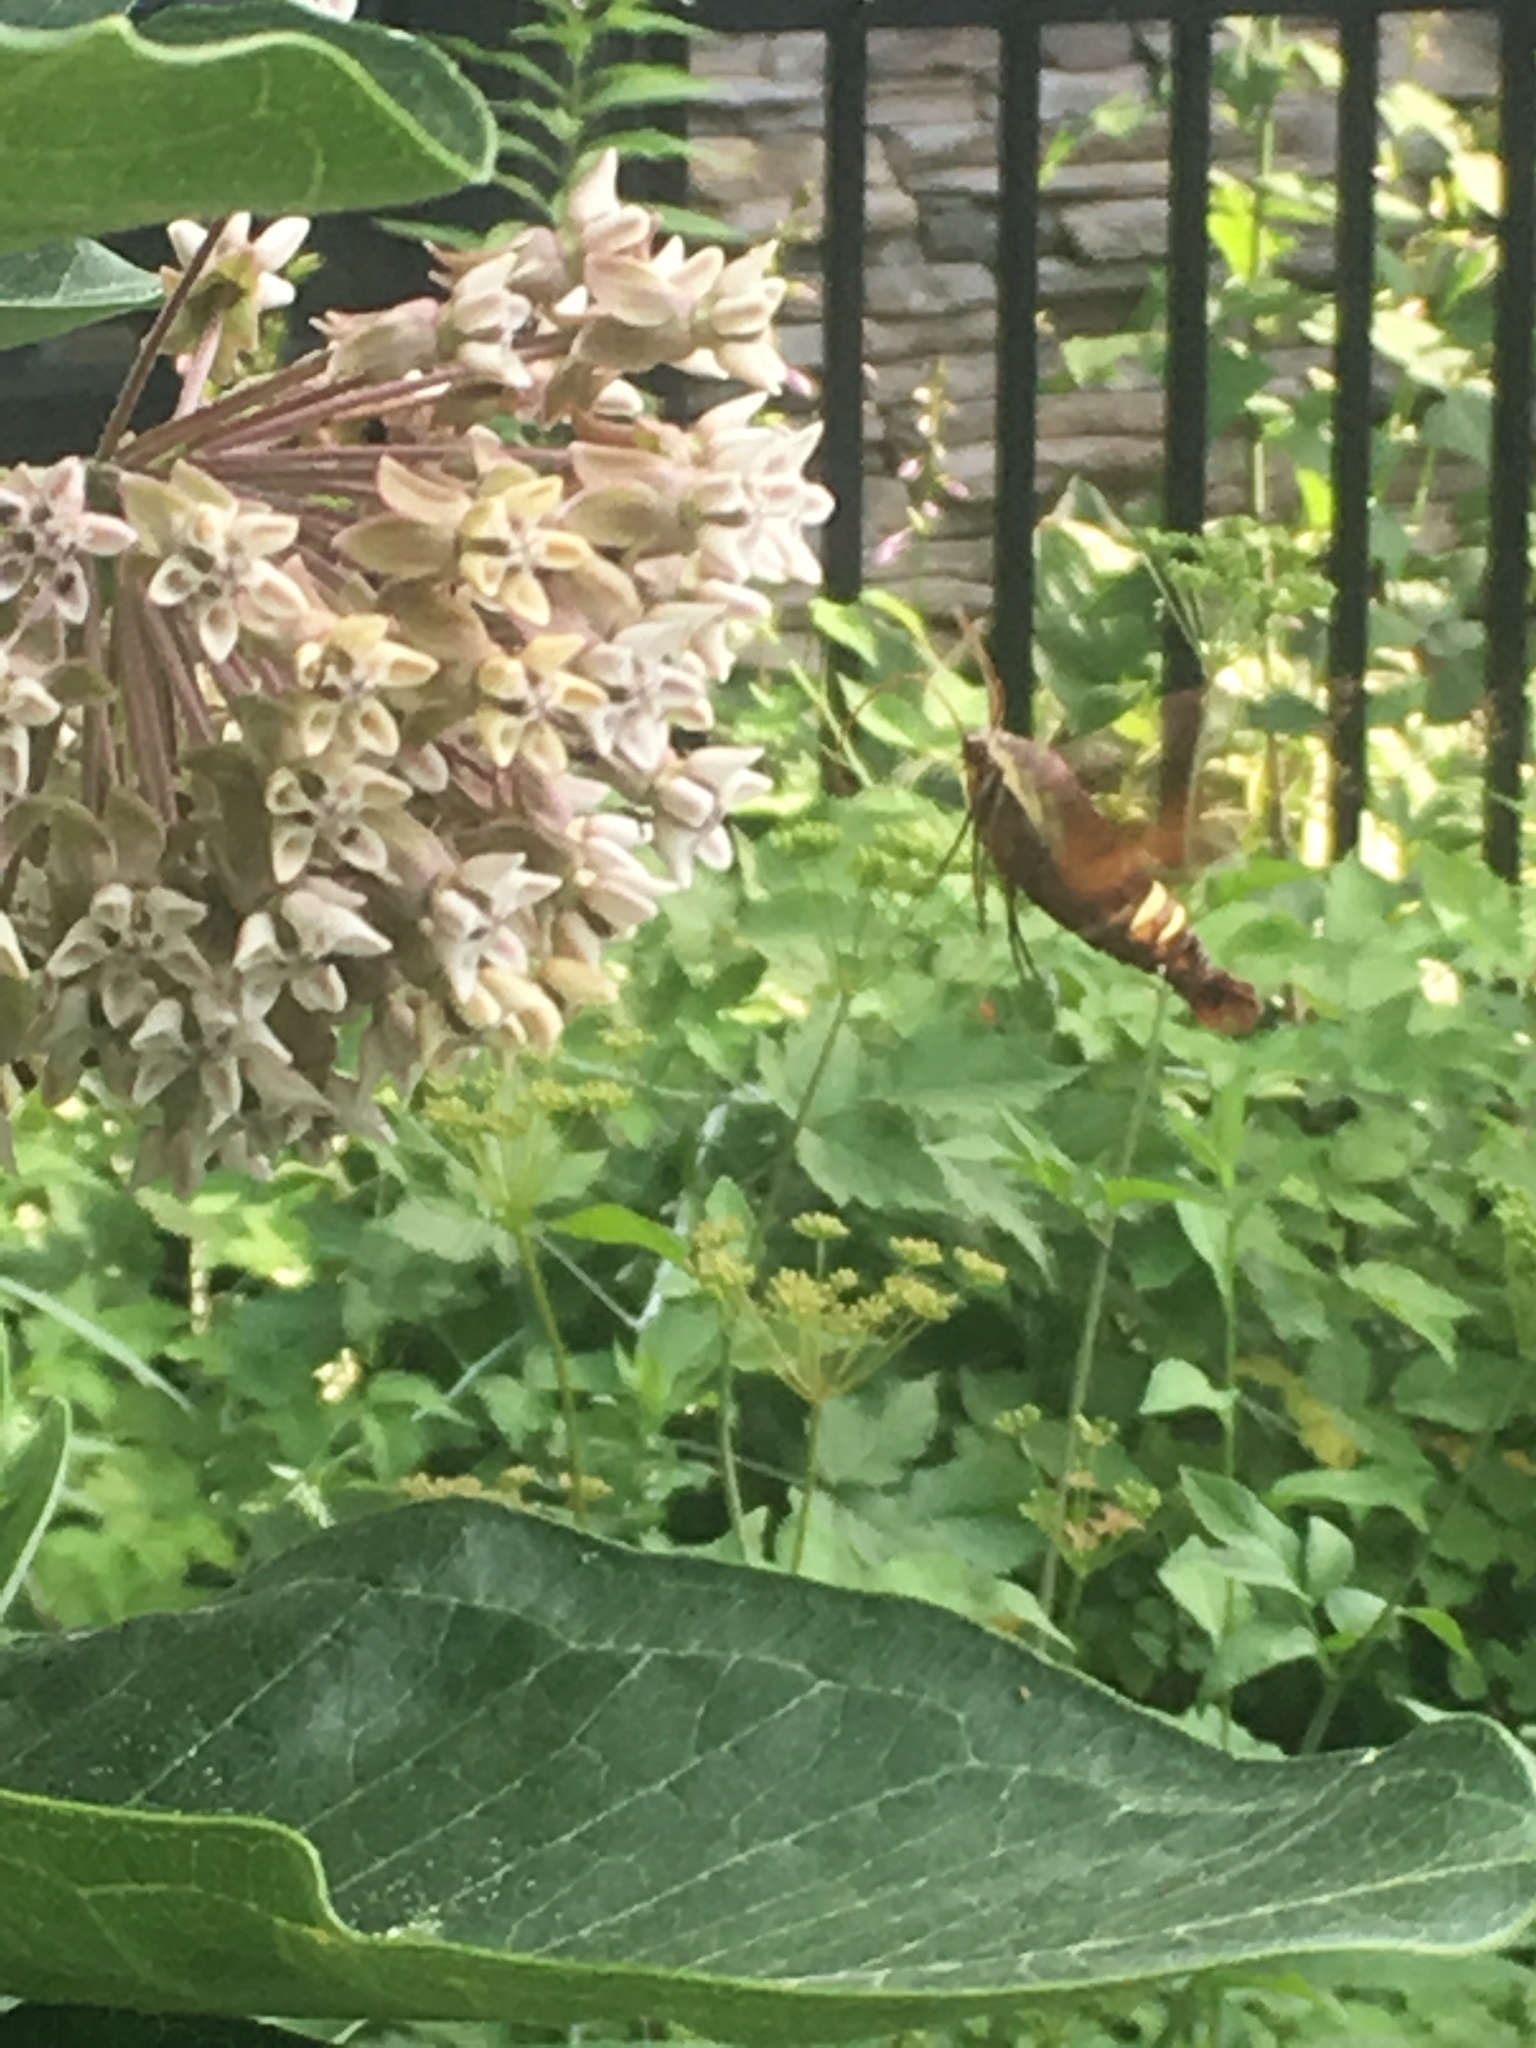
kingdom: Animalia
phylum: Arthropoda
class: Insecta
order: Lepidoptera
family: Sphingidae
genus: Amphion
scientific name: Amphion floridensis
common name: Nessus sphinx
